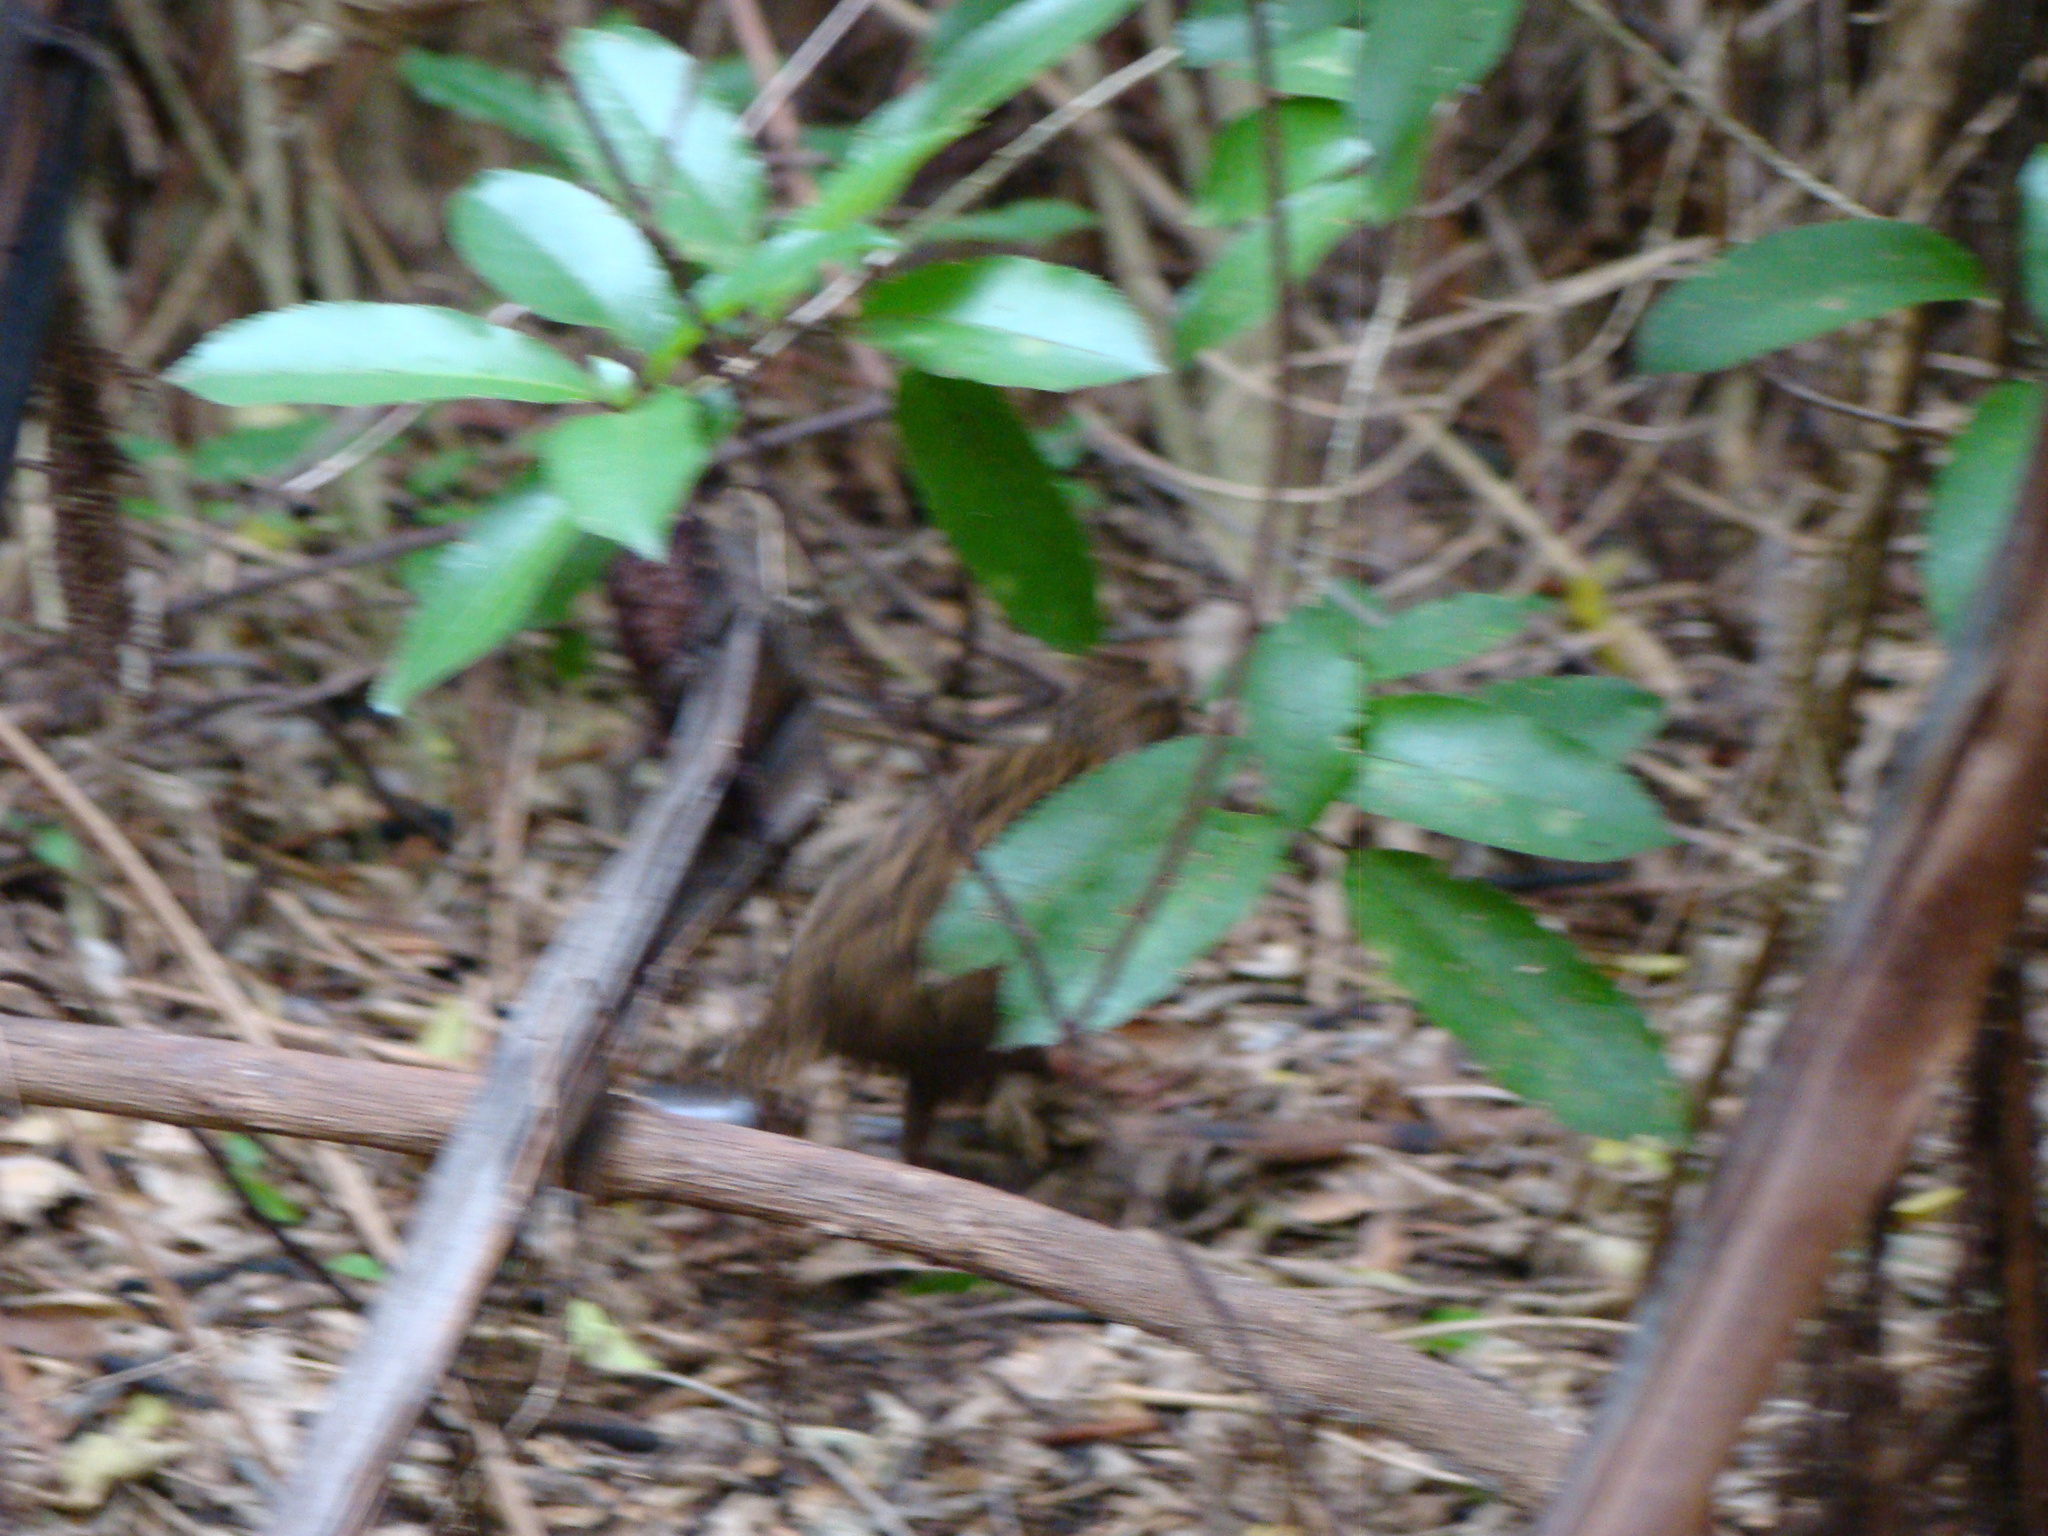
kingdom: Animalia
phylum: Chordata
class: Aves
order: Gruiformes
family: Rallidae
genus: Gallirallus
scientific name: Gallirallus australis
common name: Weka
